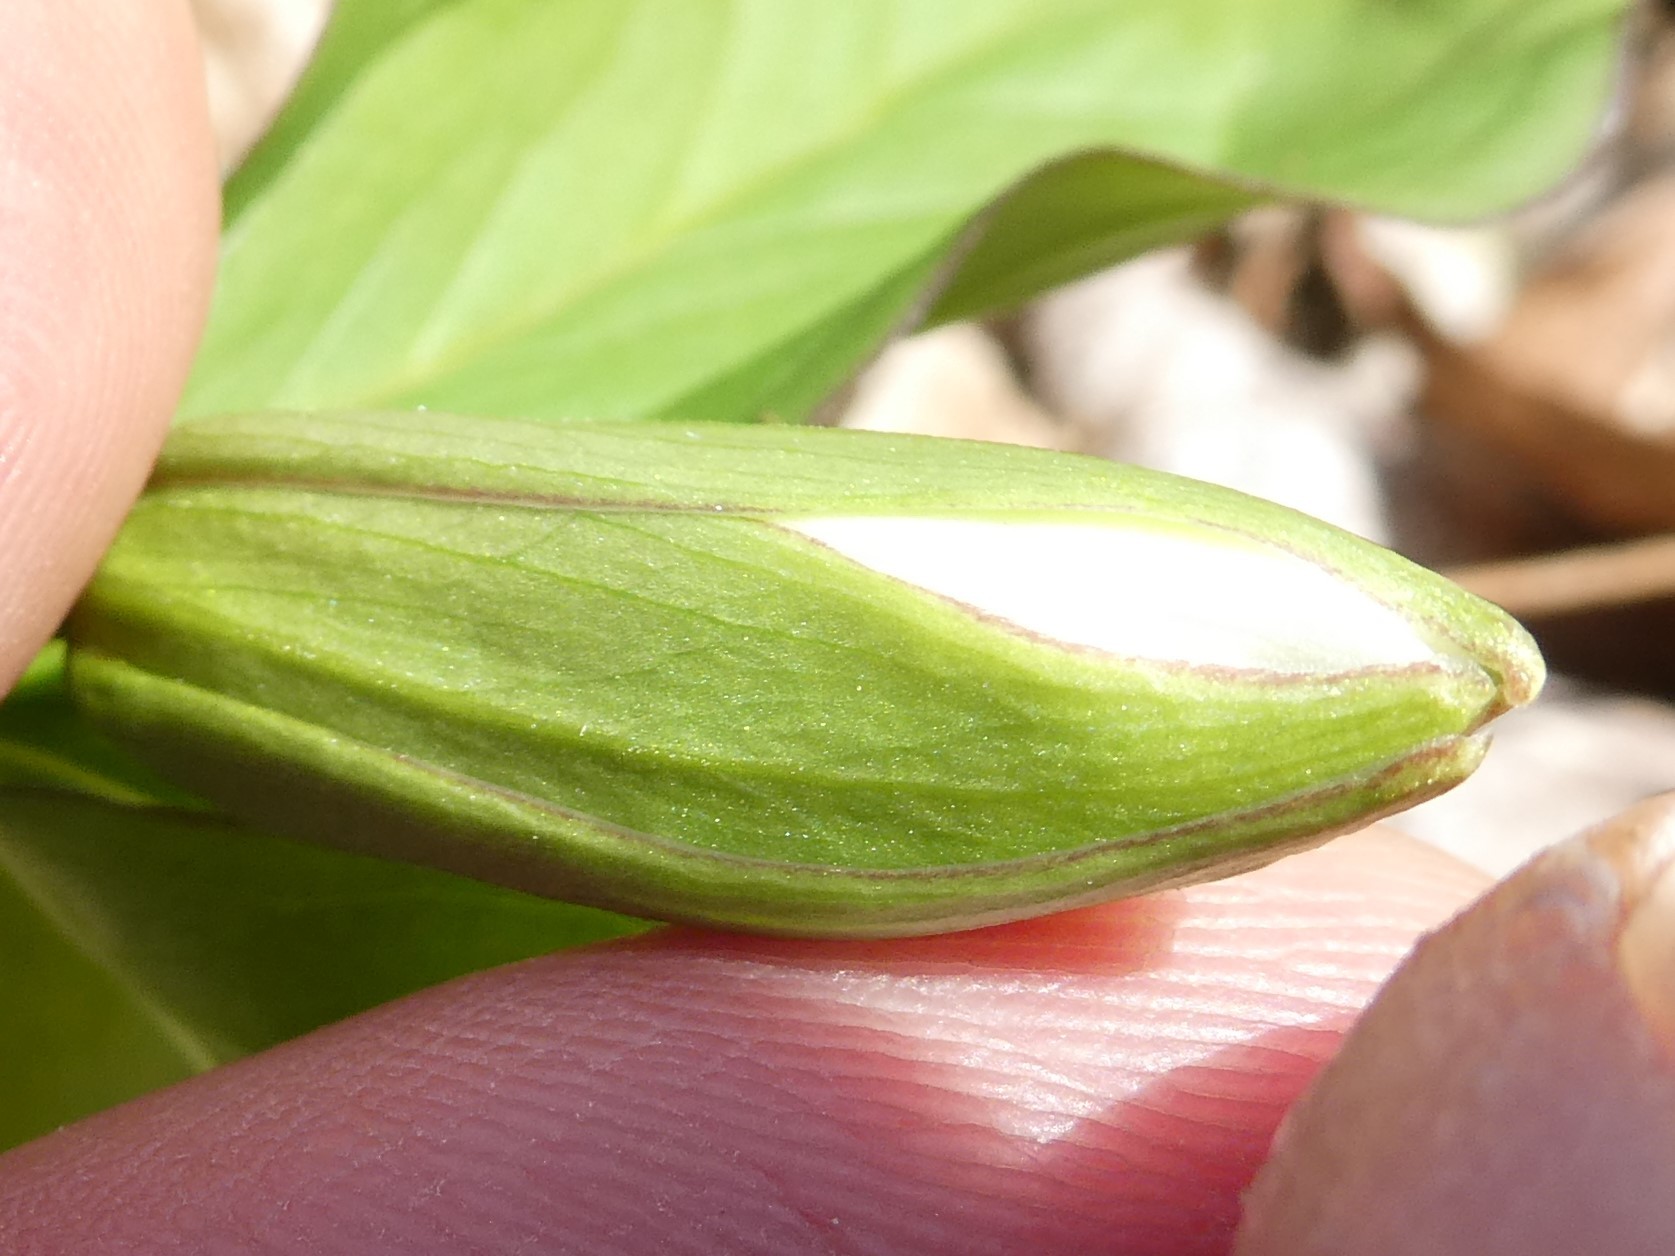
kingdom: Plantae
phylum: Tracheophyta
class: Liliopsida
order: Liliales
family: Melanthiaceae
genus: Trillium
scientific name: Trillium grandiflorum
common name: Great white trillium
